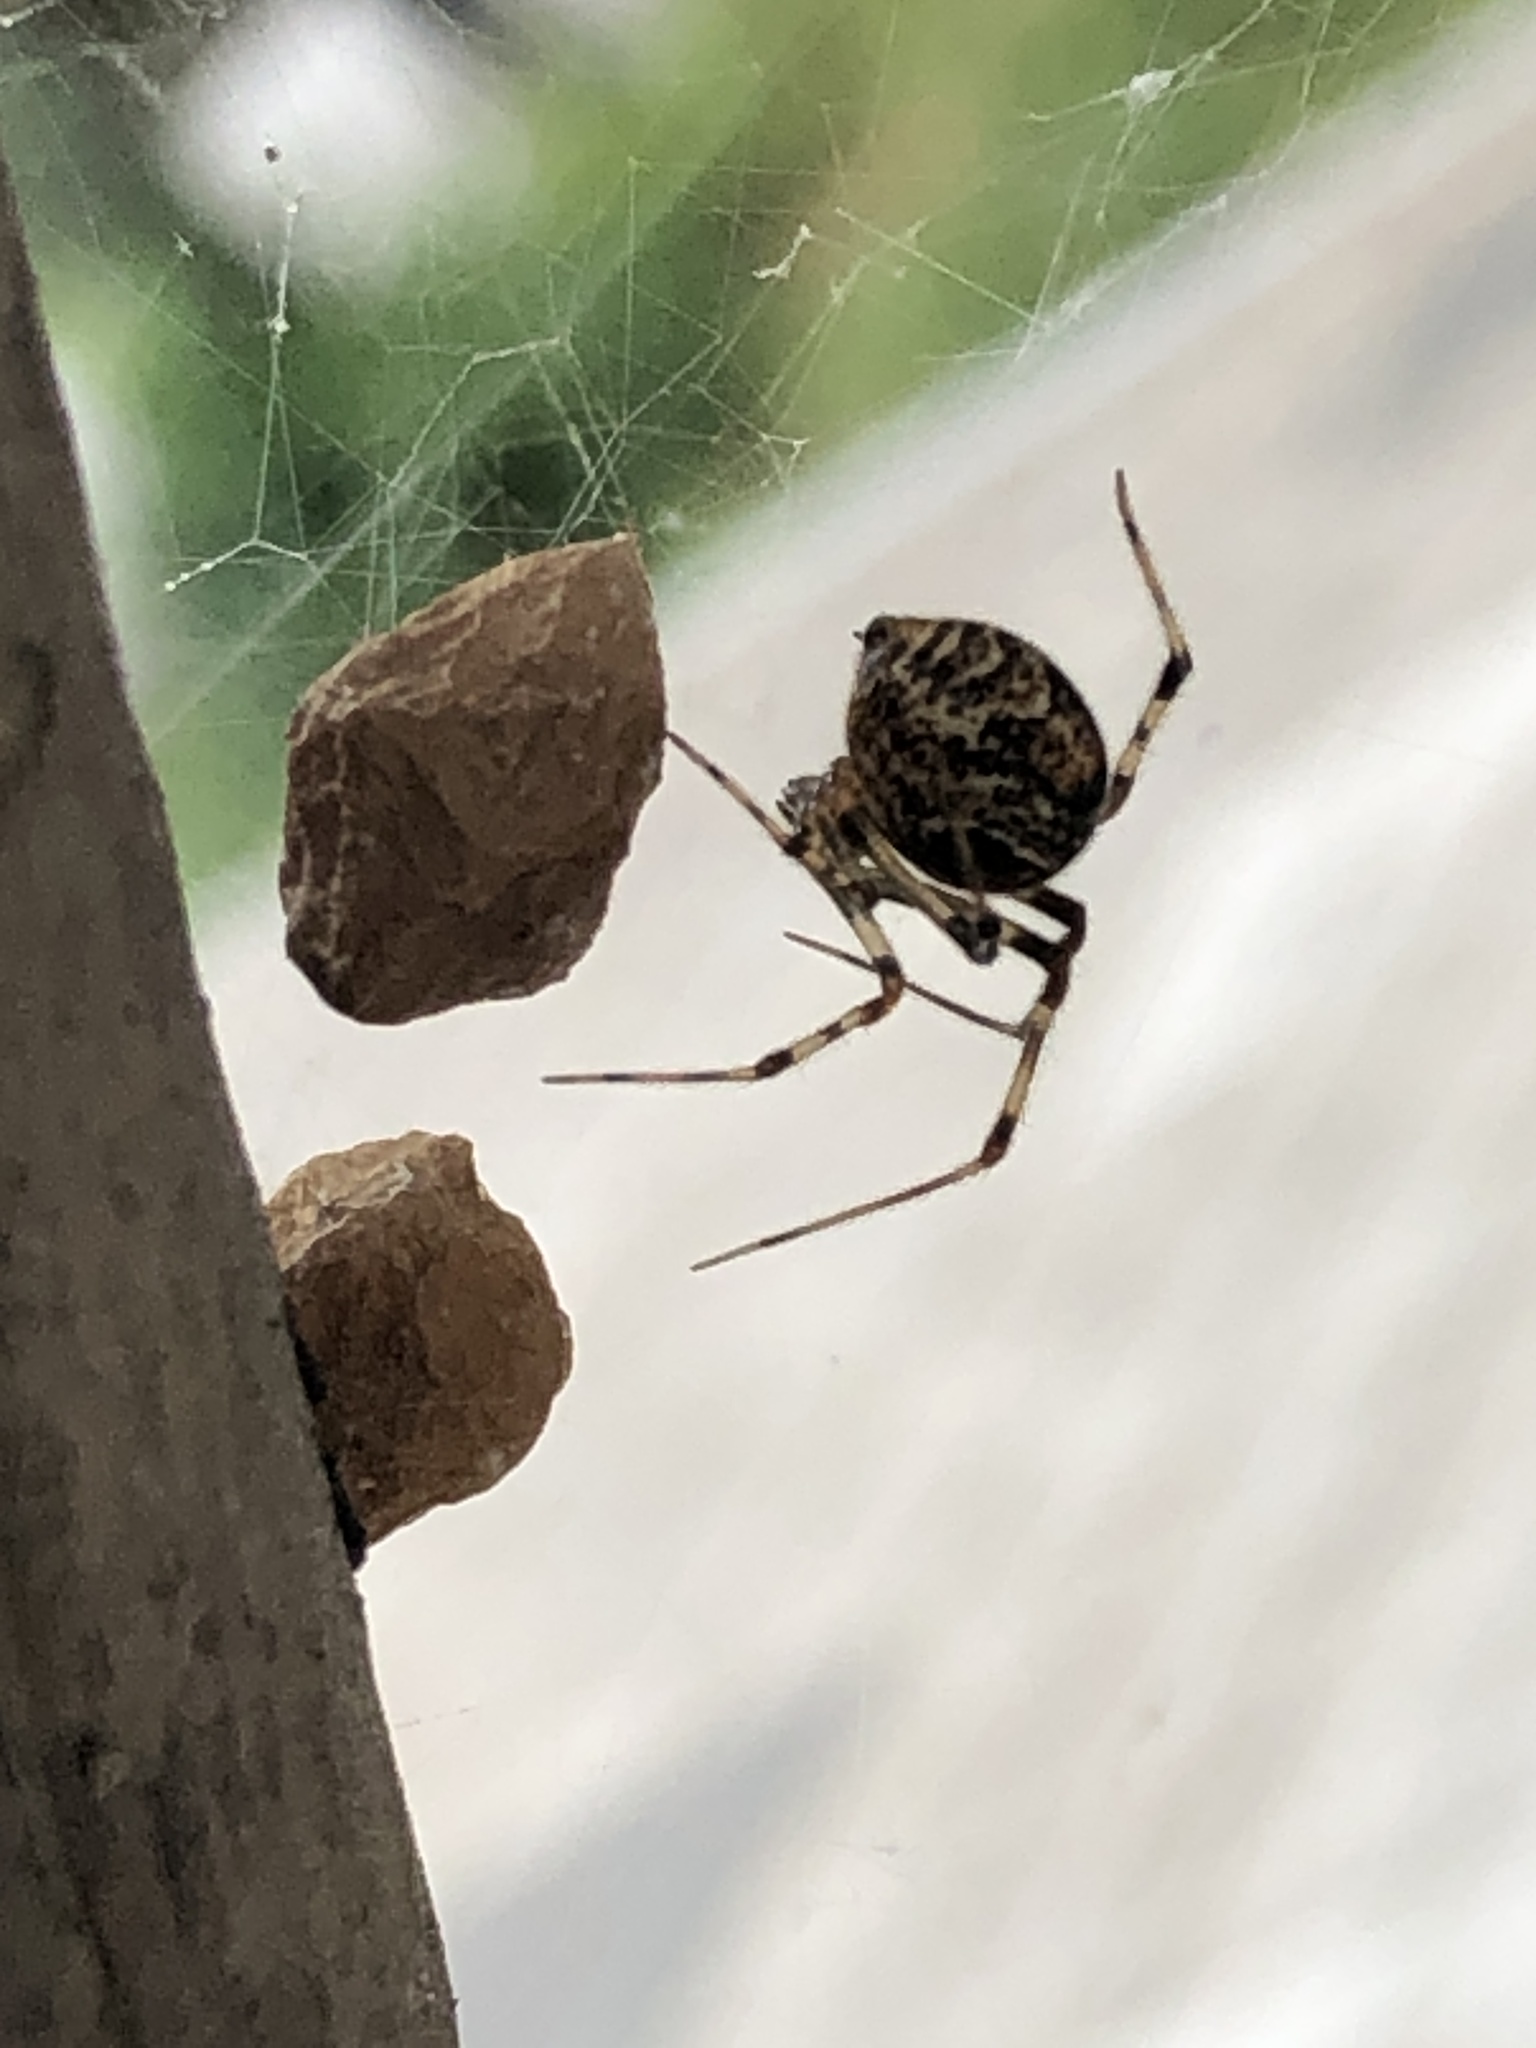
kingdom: Animalia
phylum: Arthropoda
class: Arachnida
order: Araneae
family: Theridiidae
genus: Parasteatoda
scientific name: Parasteatoda tepidariorum
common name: Common house spider
